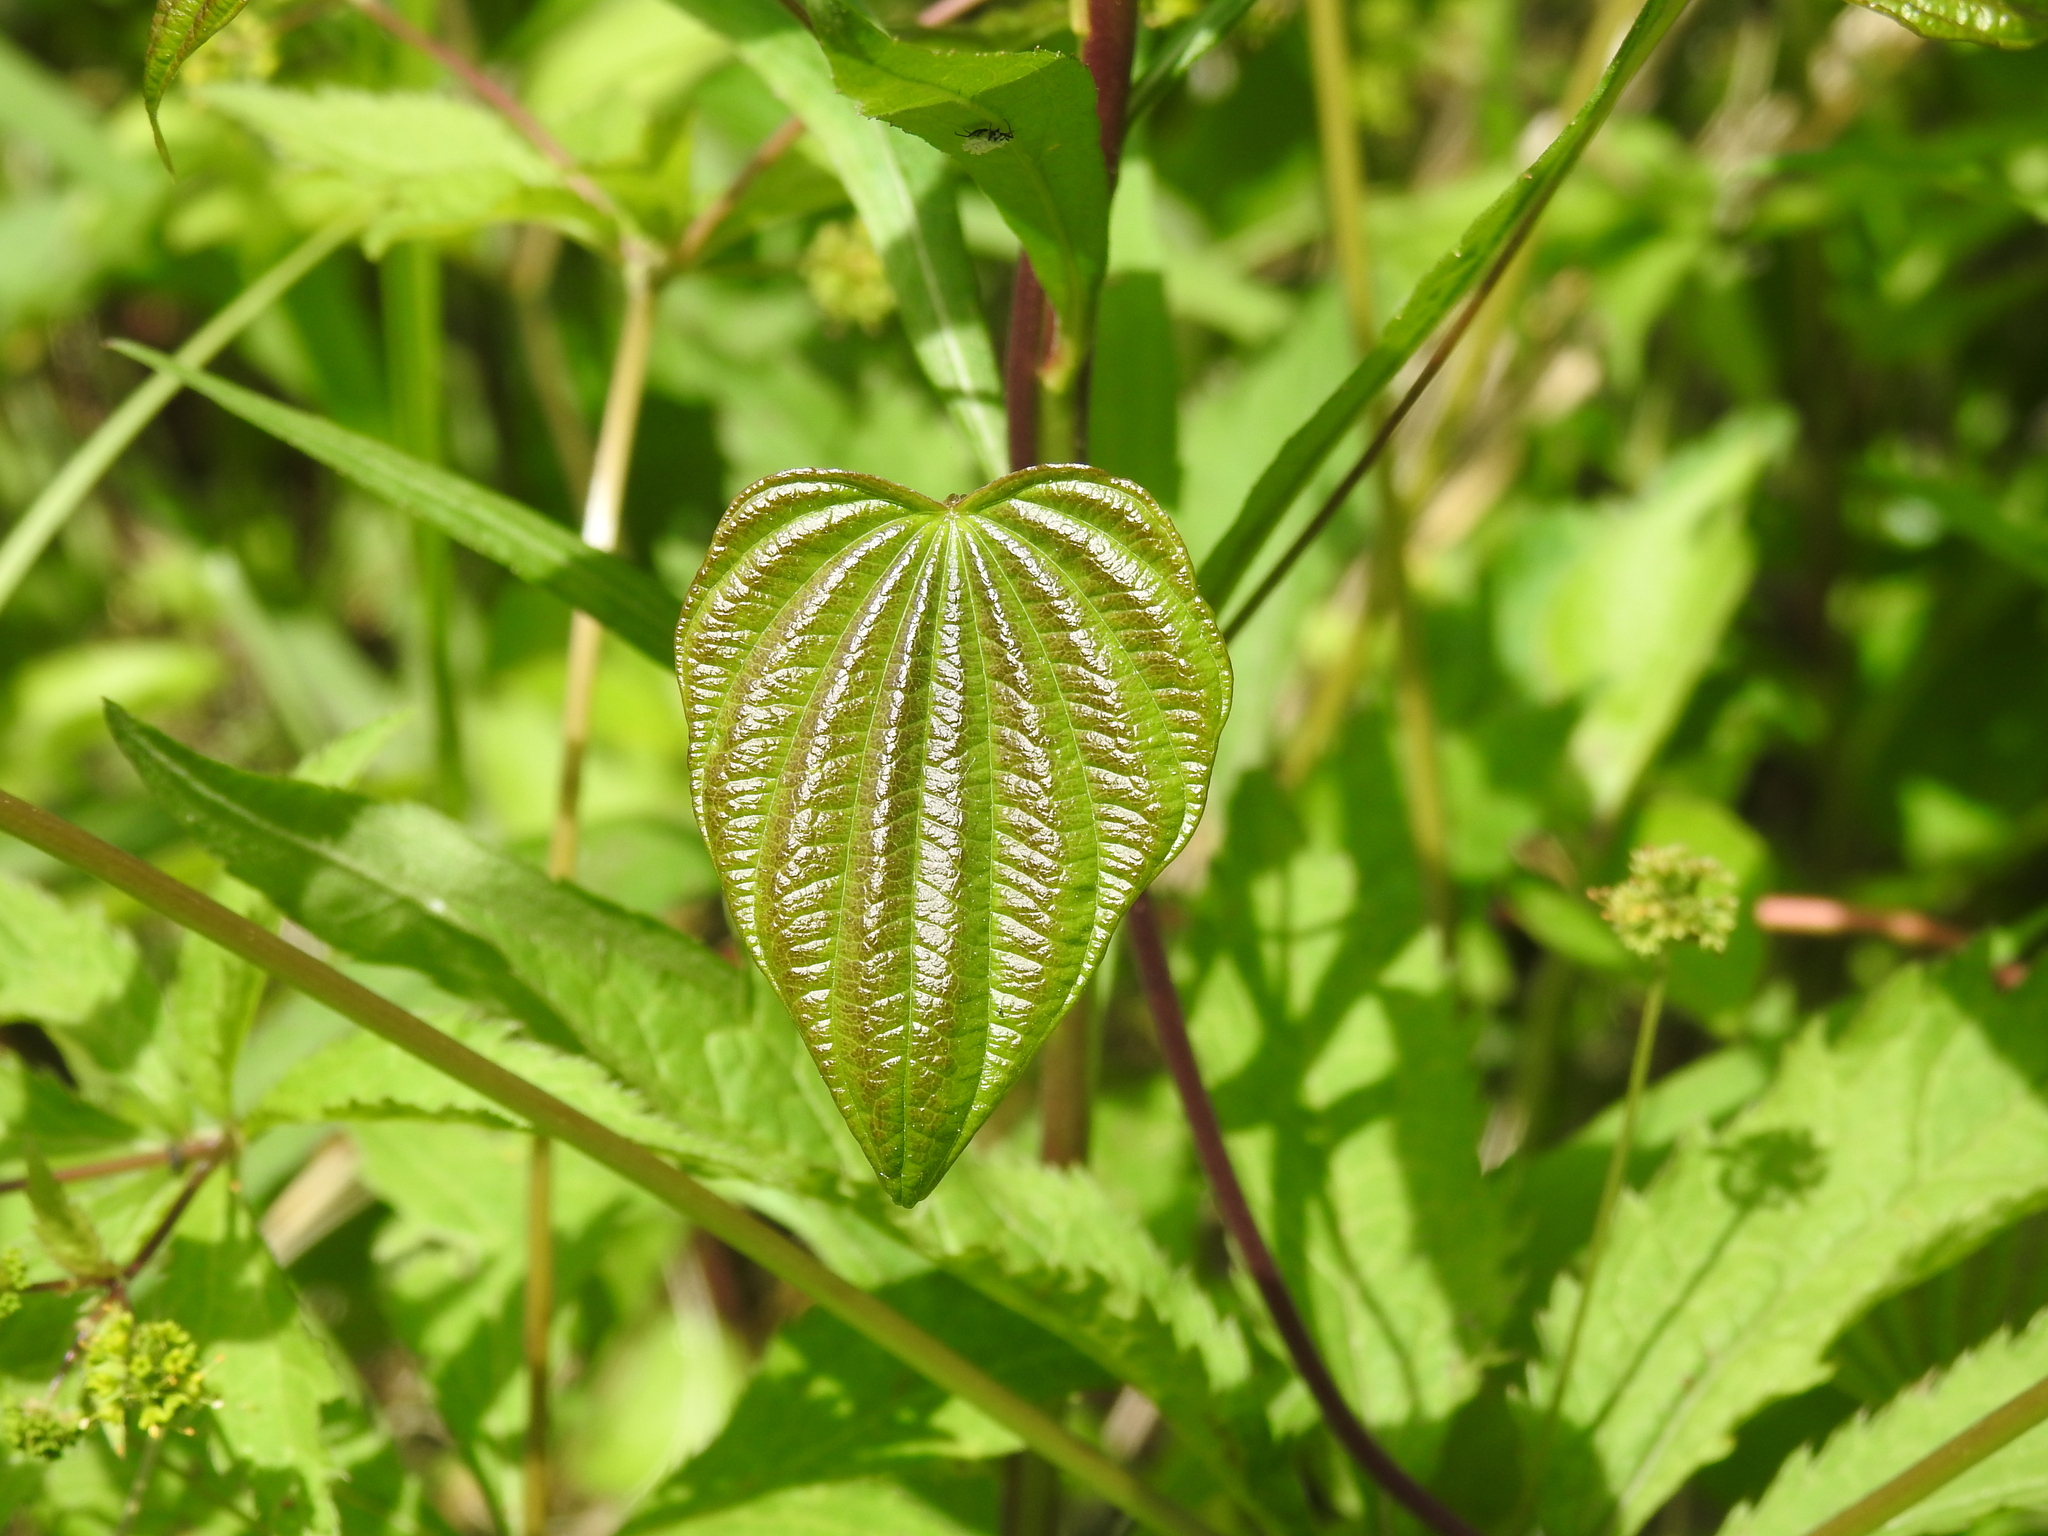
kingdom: Plantae
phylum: Tracheophyta
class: Liliopsida
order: Dioscoreales
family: Dioscoreaceae
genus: Dioscorea
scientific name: Dioscorea villosa
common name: Wild yam
